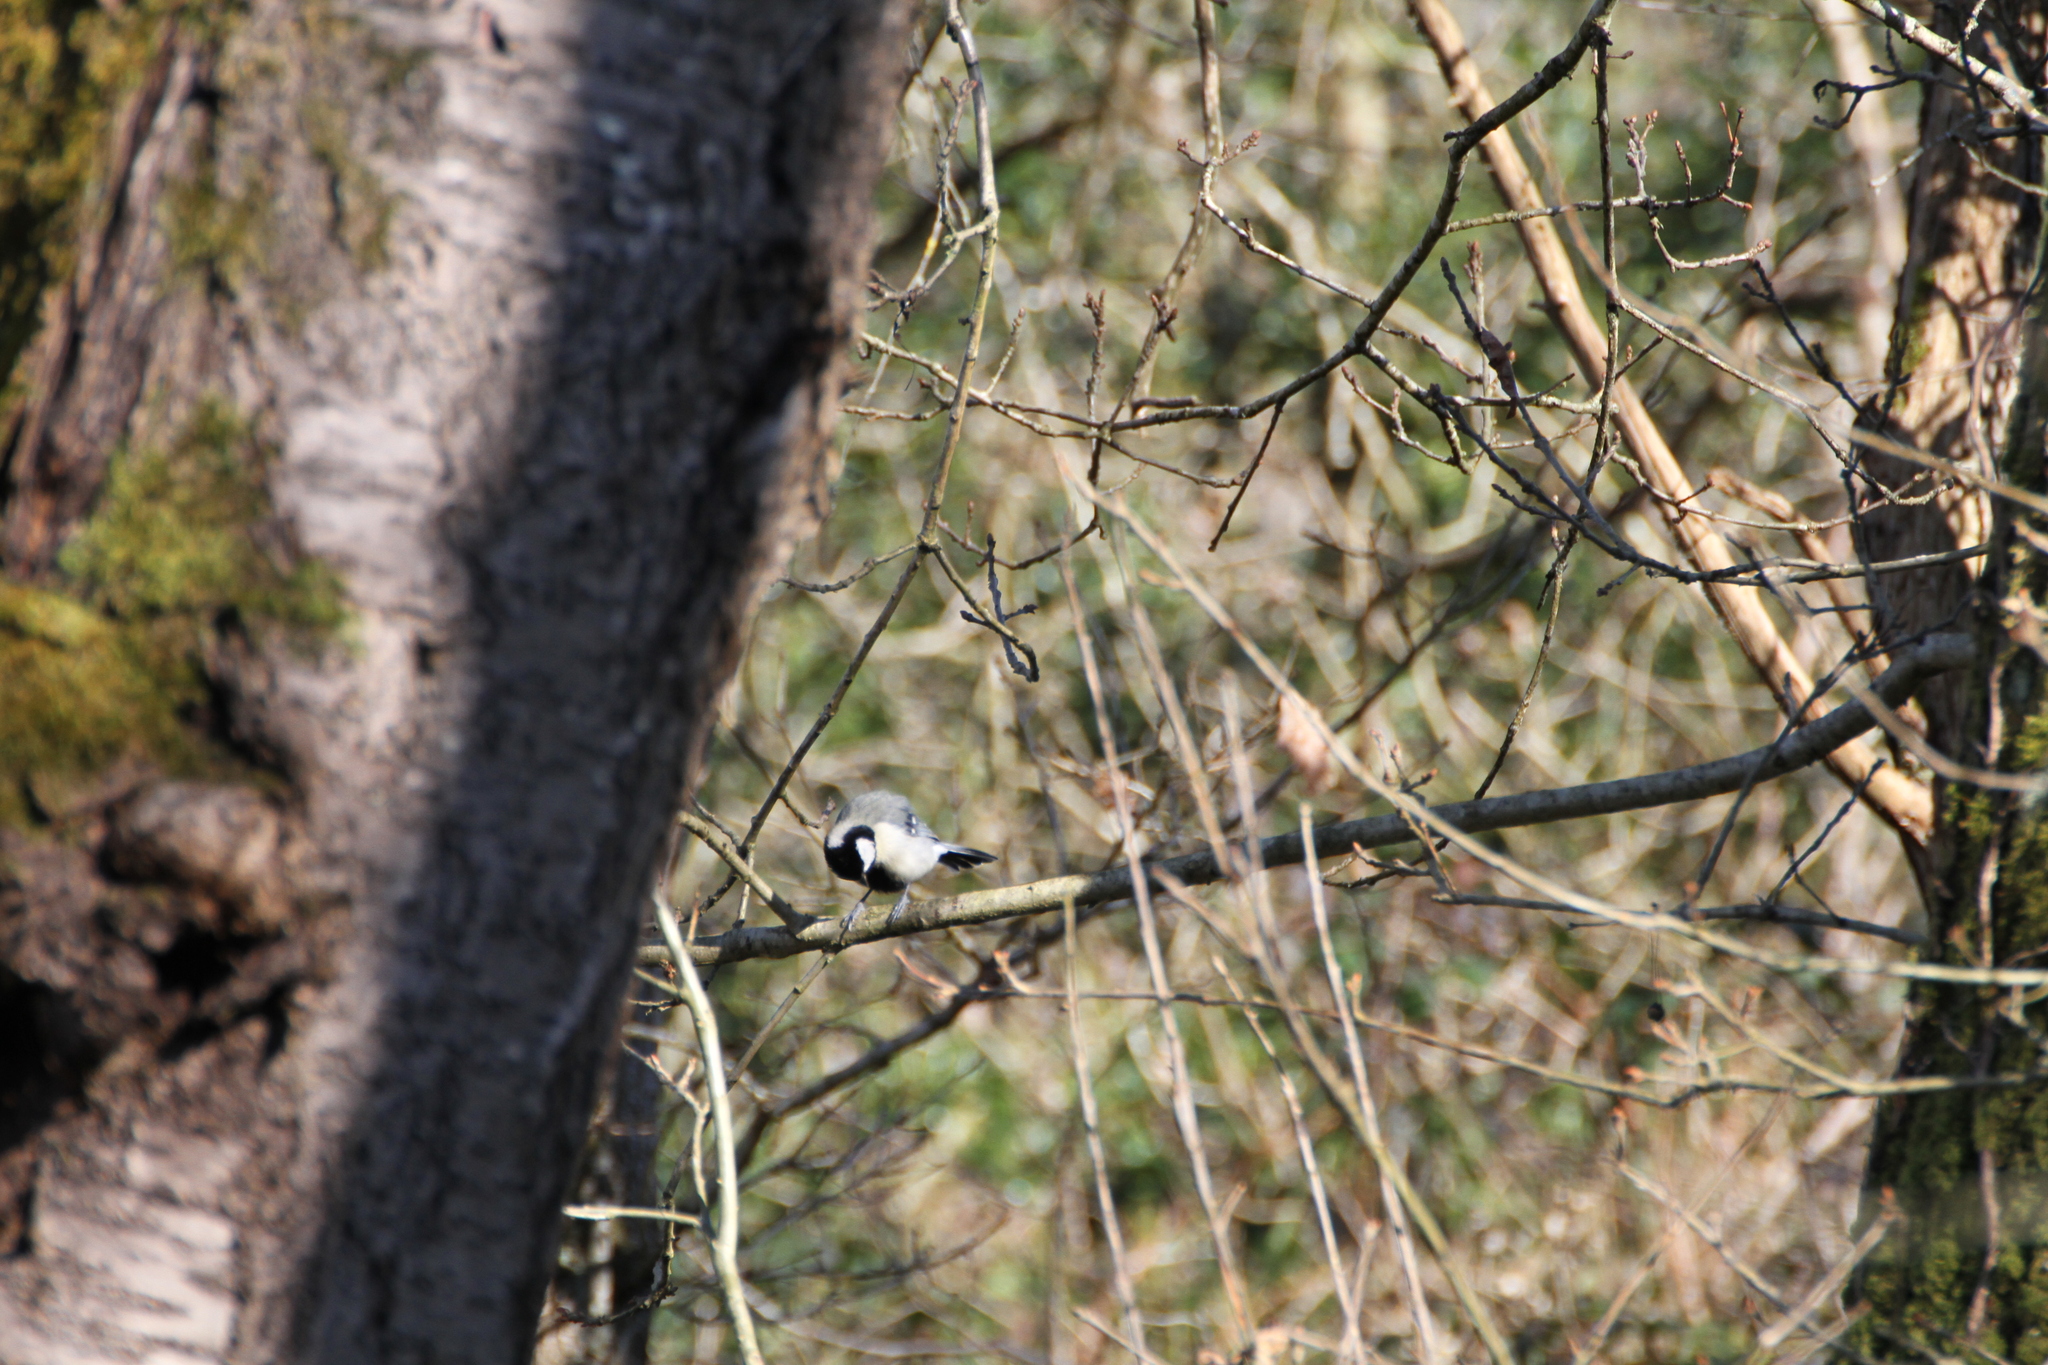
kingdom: Animalia
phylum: Chordata
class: Aves
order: Passeriformes
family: Paridae
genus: Parus
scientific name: Parus major
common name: Great tit
